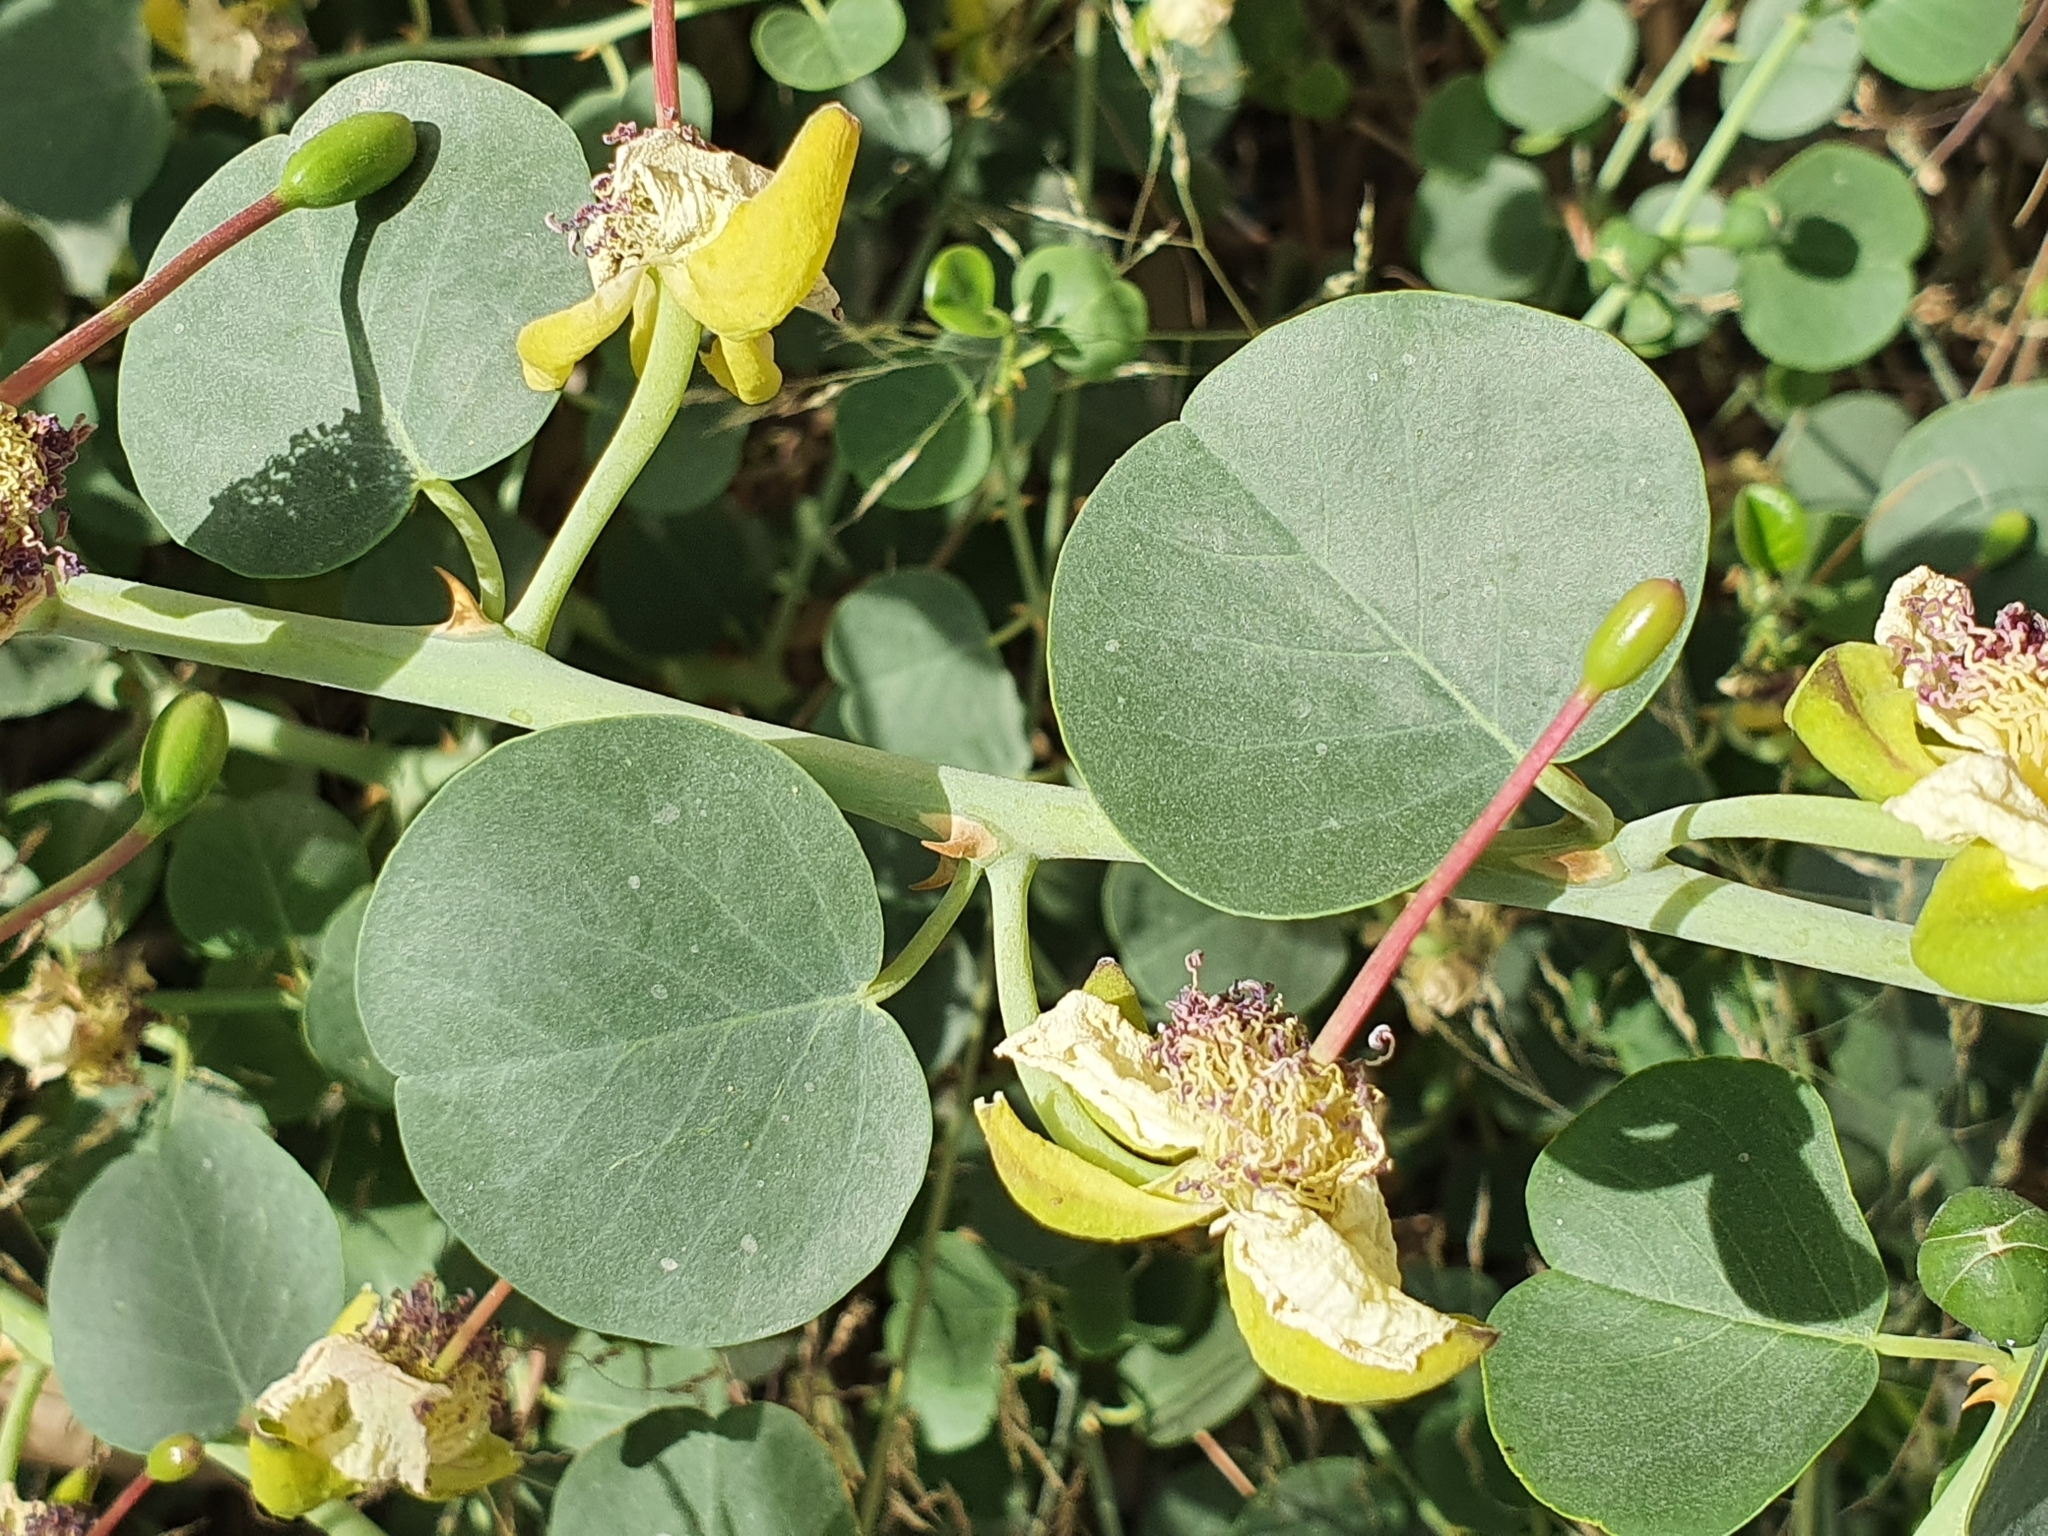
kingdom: Plantae
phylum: Tracheophyta
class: Magnoliopsida
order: Brassicales
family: Capparaceae
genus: Capparis
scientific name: Capparis spinosa
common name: Caper
